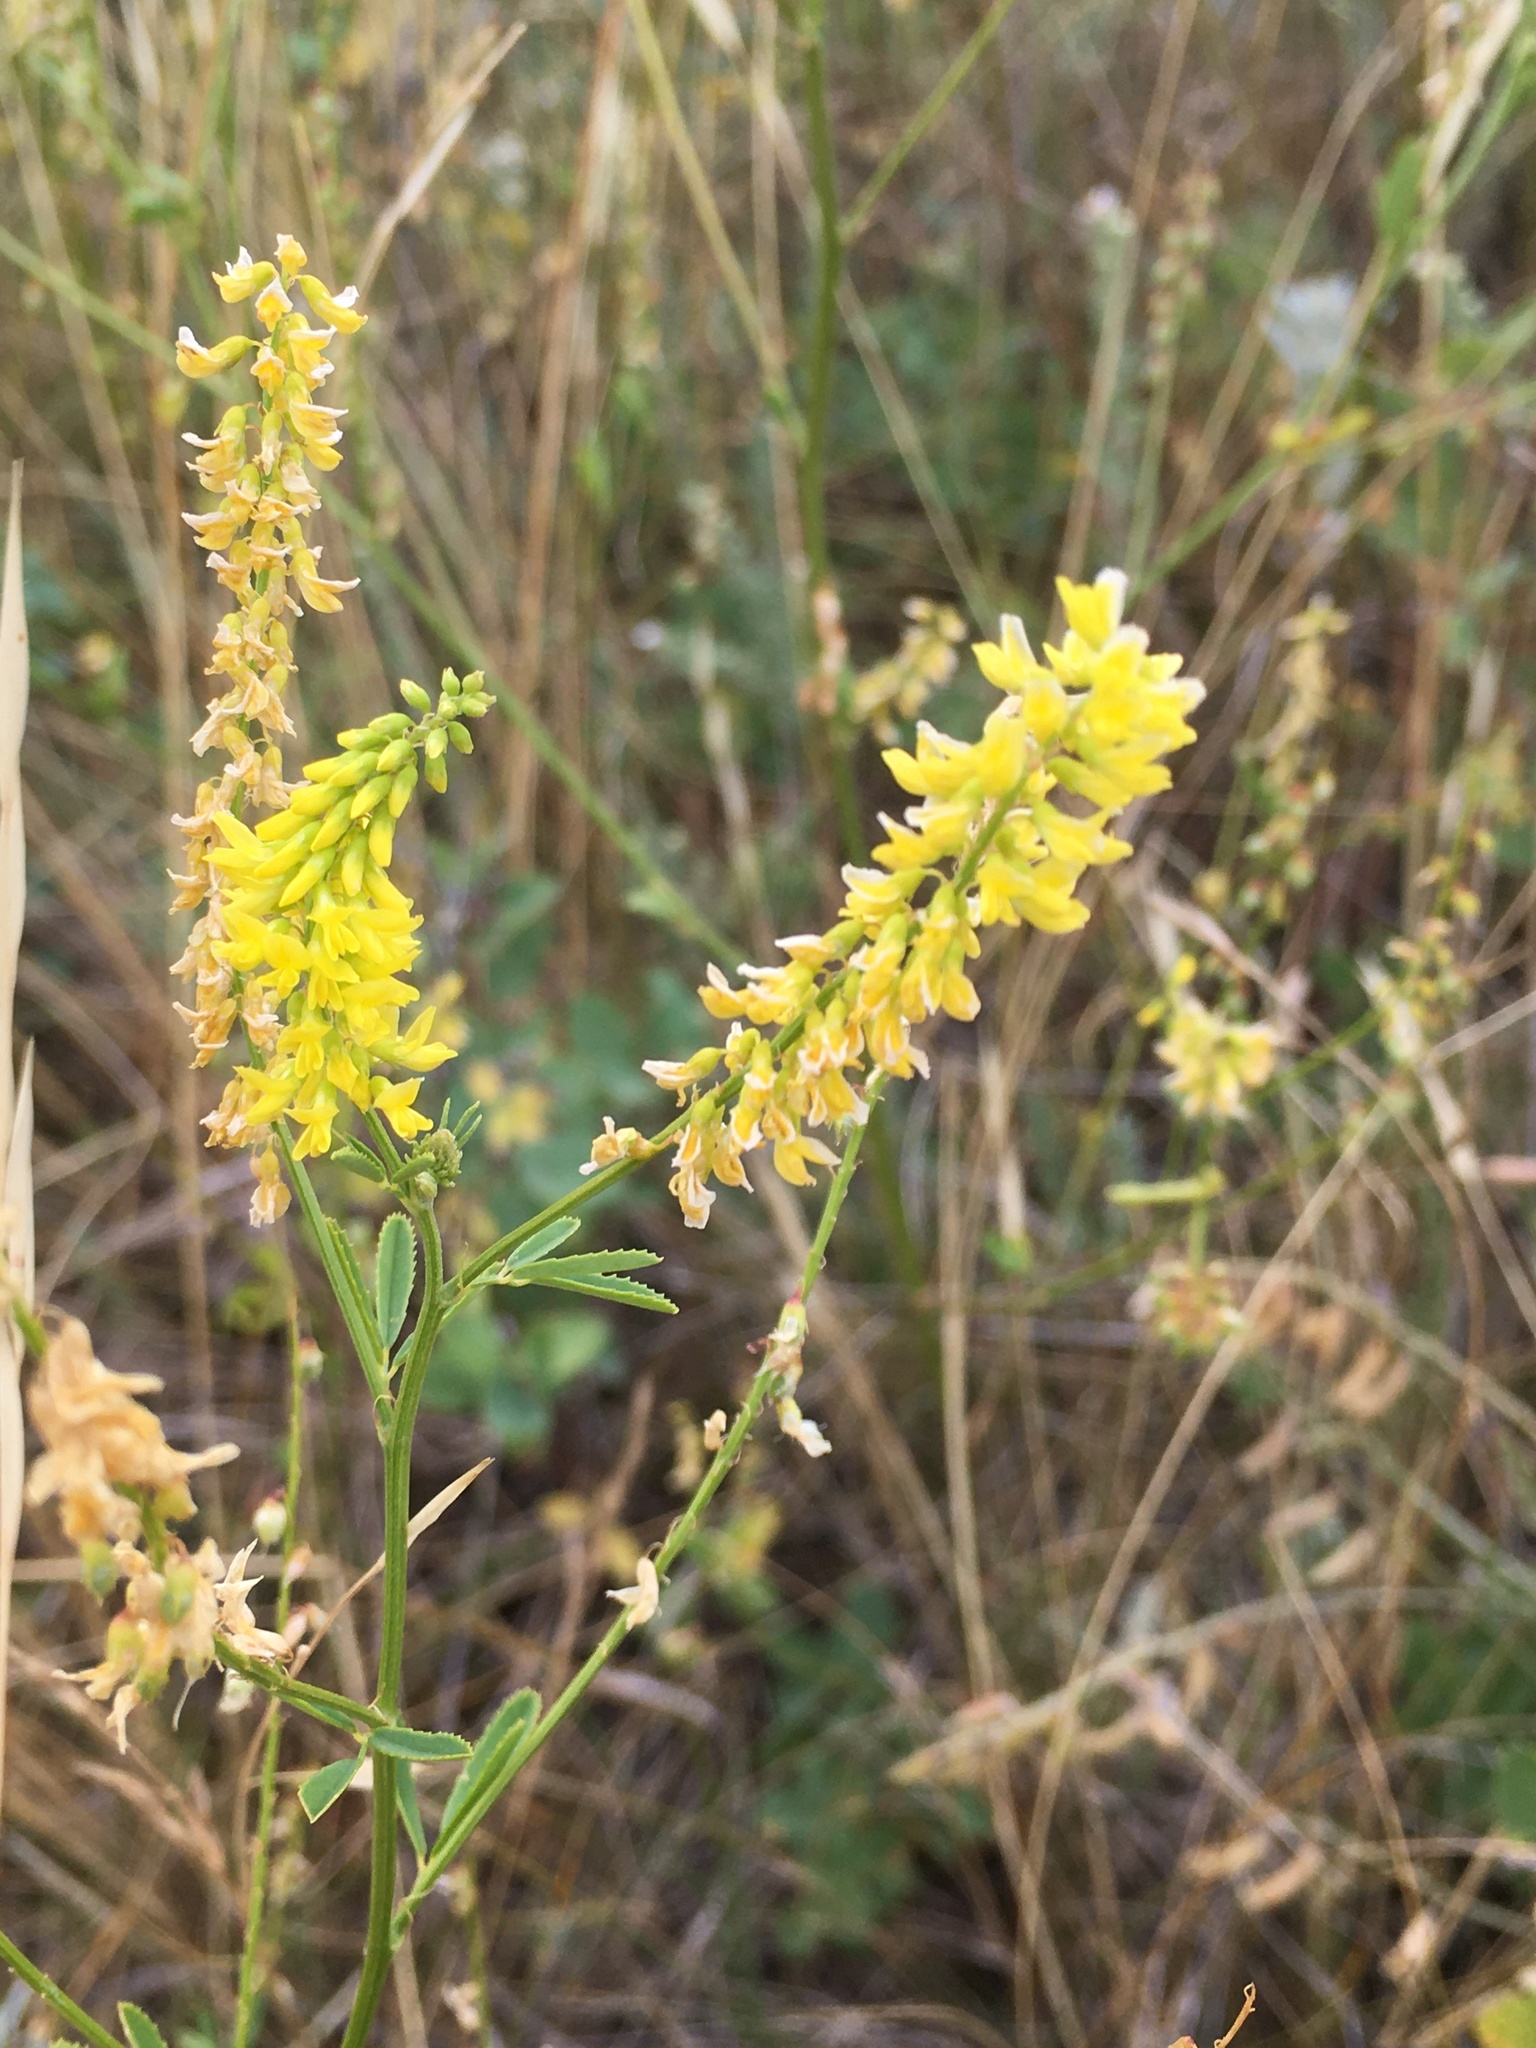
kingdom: Plantae
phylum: Tracheophyta
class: Magnoliopsida
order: Fabales
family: Fabaceae
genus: Melilotus
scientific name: Melilotus officinalis
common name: Sweetclover
